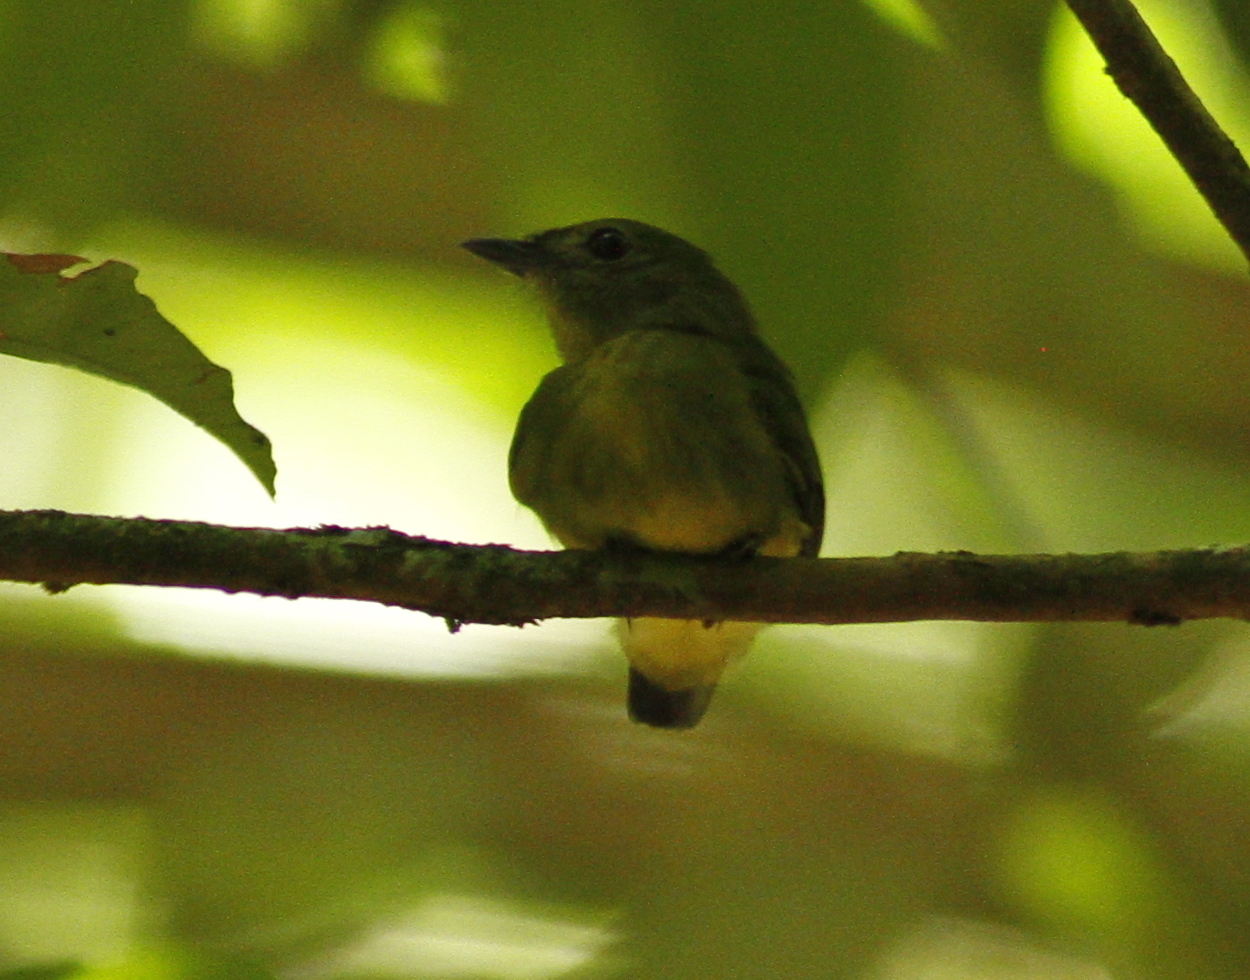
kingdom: Animalia
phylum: Chordata
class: Aves
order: Passeriformes
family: Pipridae
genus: Tyranneutes
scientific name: Tyranneutes virescens
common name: Tiny tyrant-manakin
